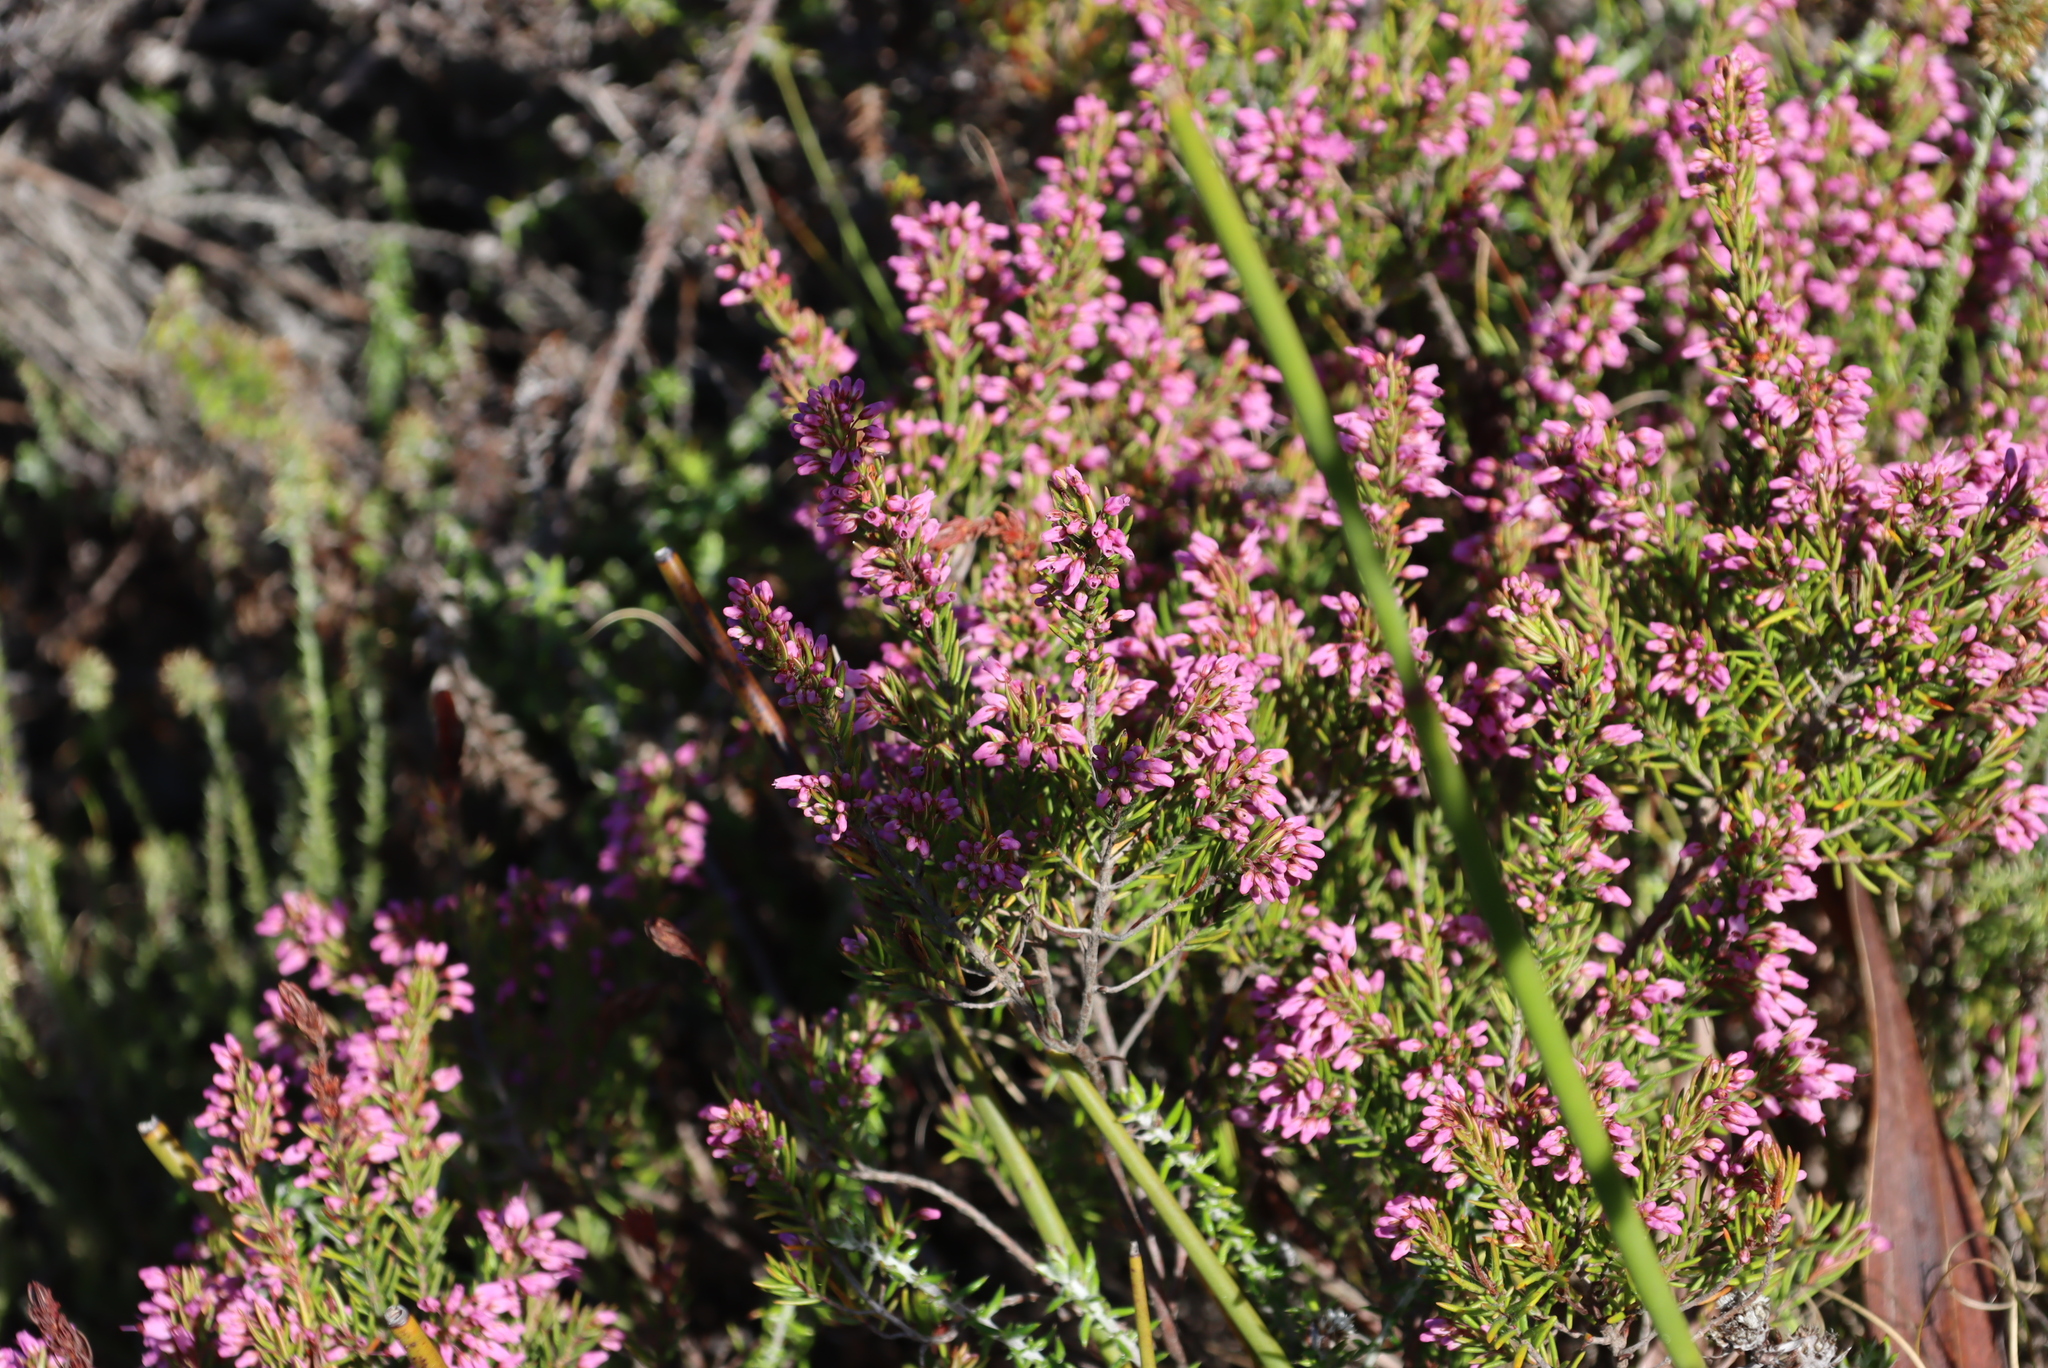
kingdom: Plantae
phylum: Tracheophyta
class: Magnoliopsida
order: Ericales
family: Ericaceae
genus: Erica
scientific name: Erica nudiflora
